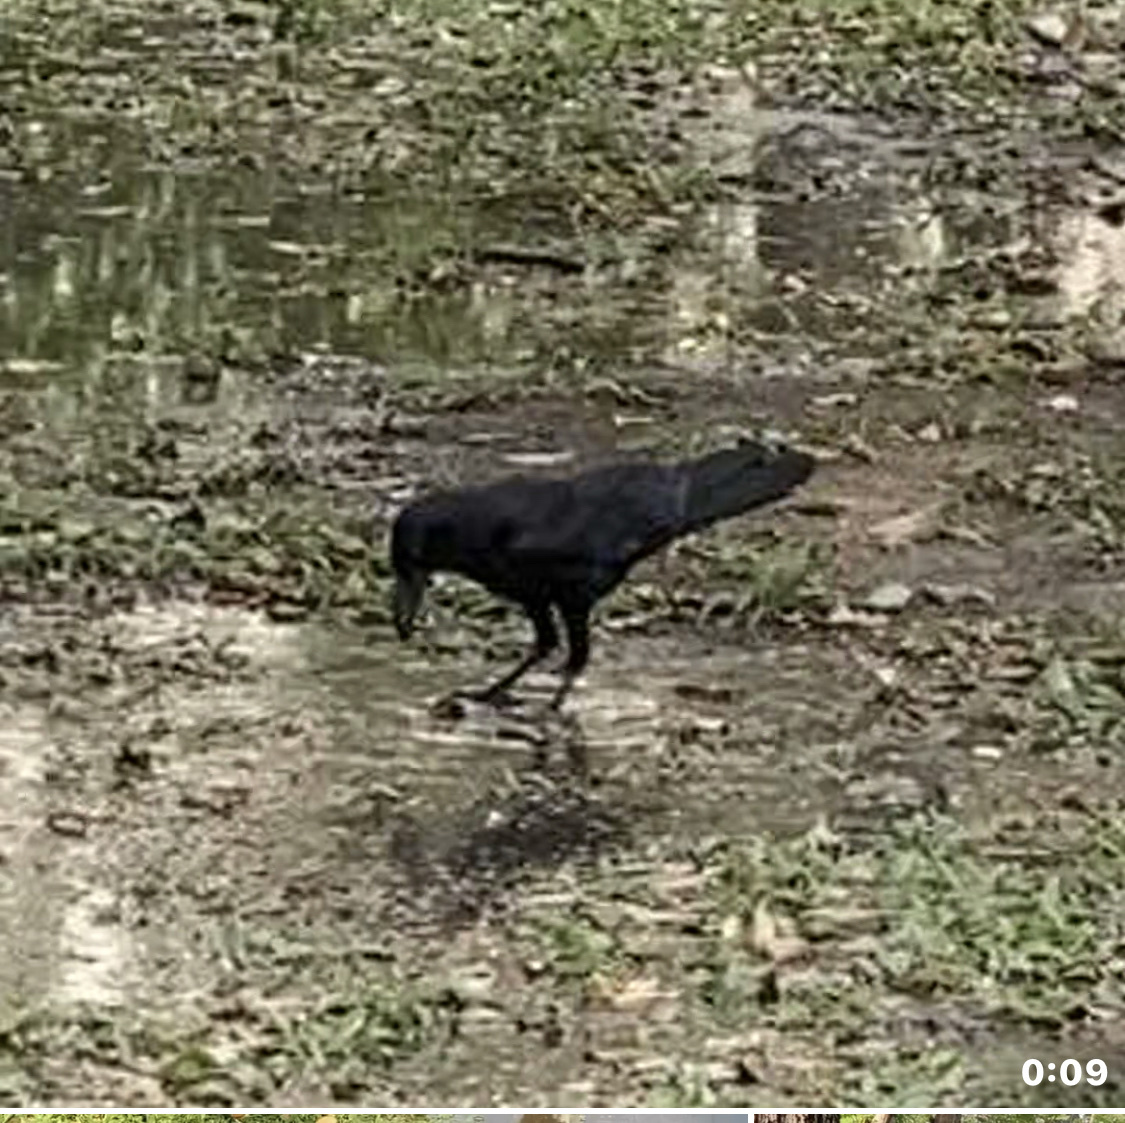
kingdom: Animalia
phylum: Chordata
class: Aves
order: Passeriformes
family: Corvidae
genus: Corvus
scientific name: Corvus macrorhynchos
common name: Large-billed crow
